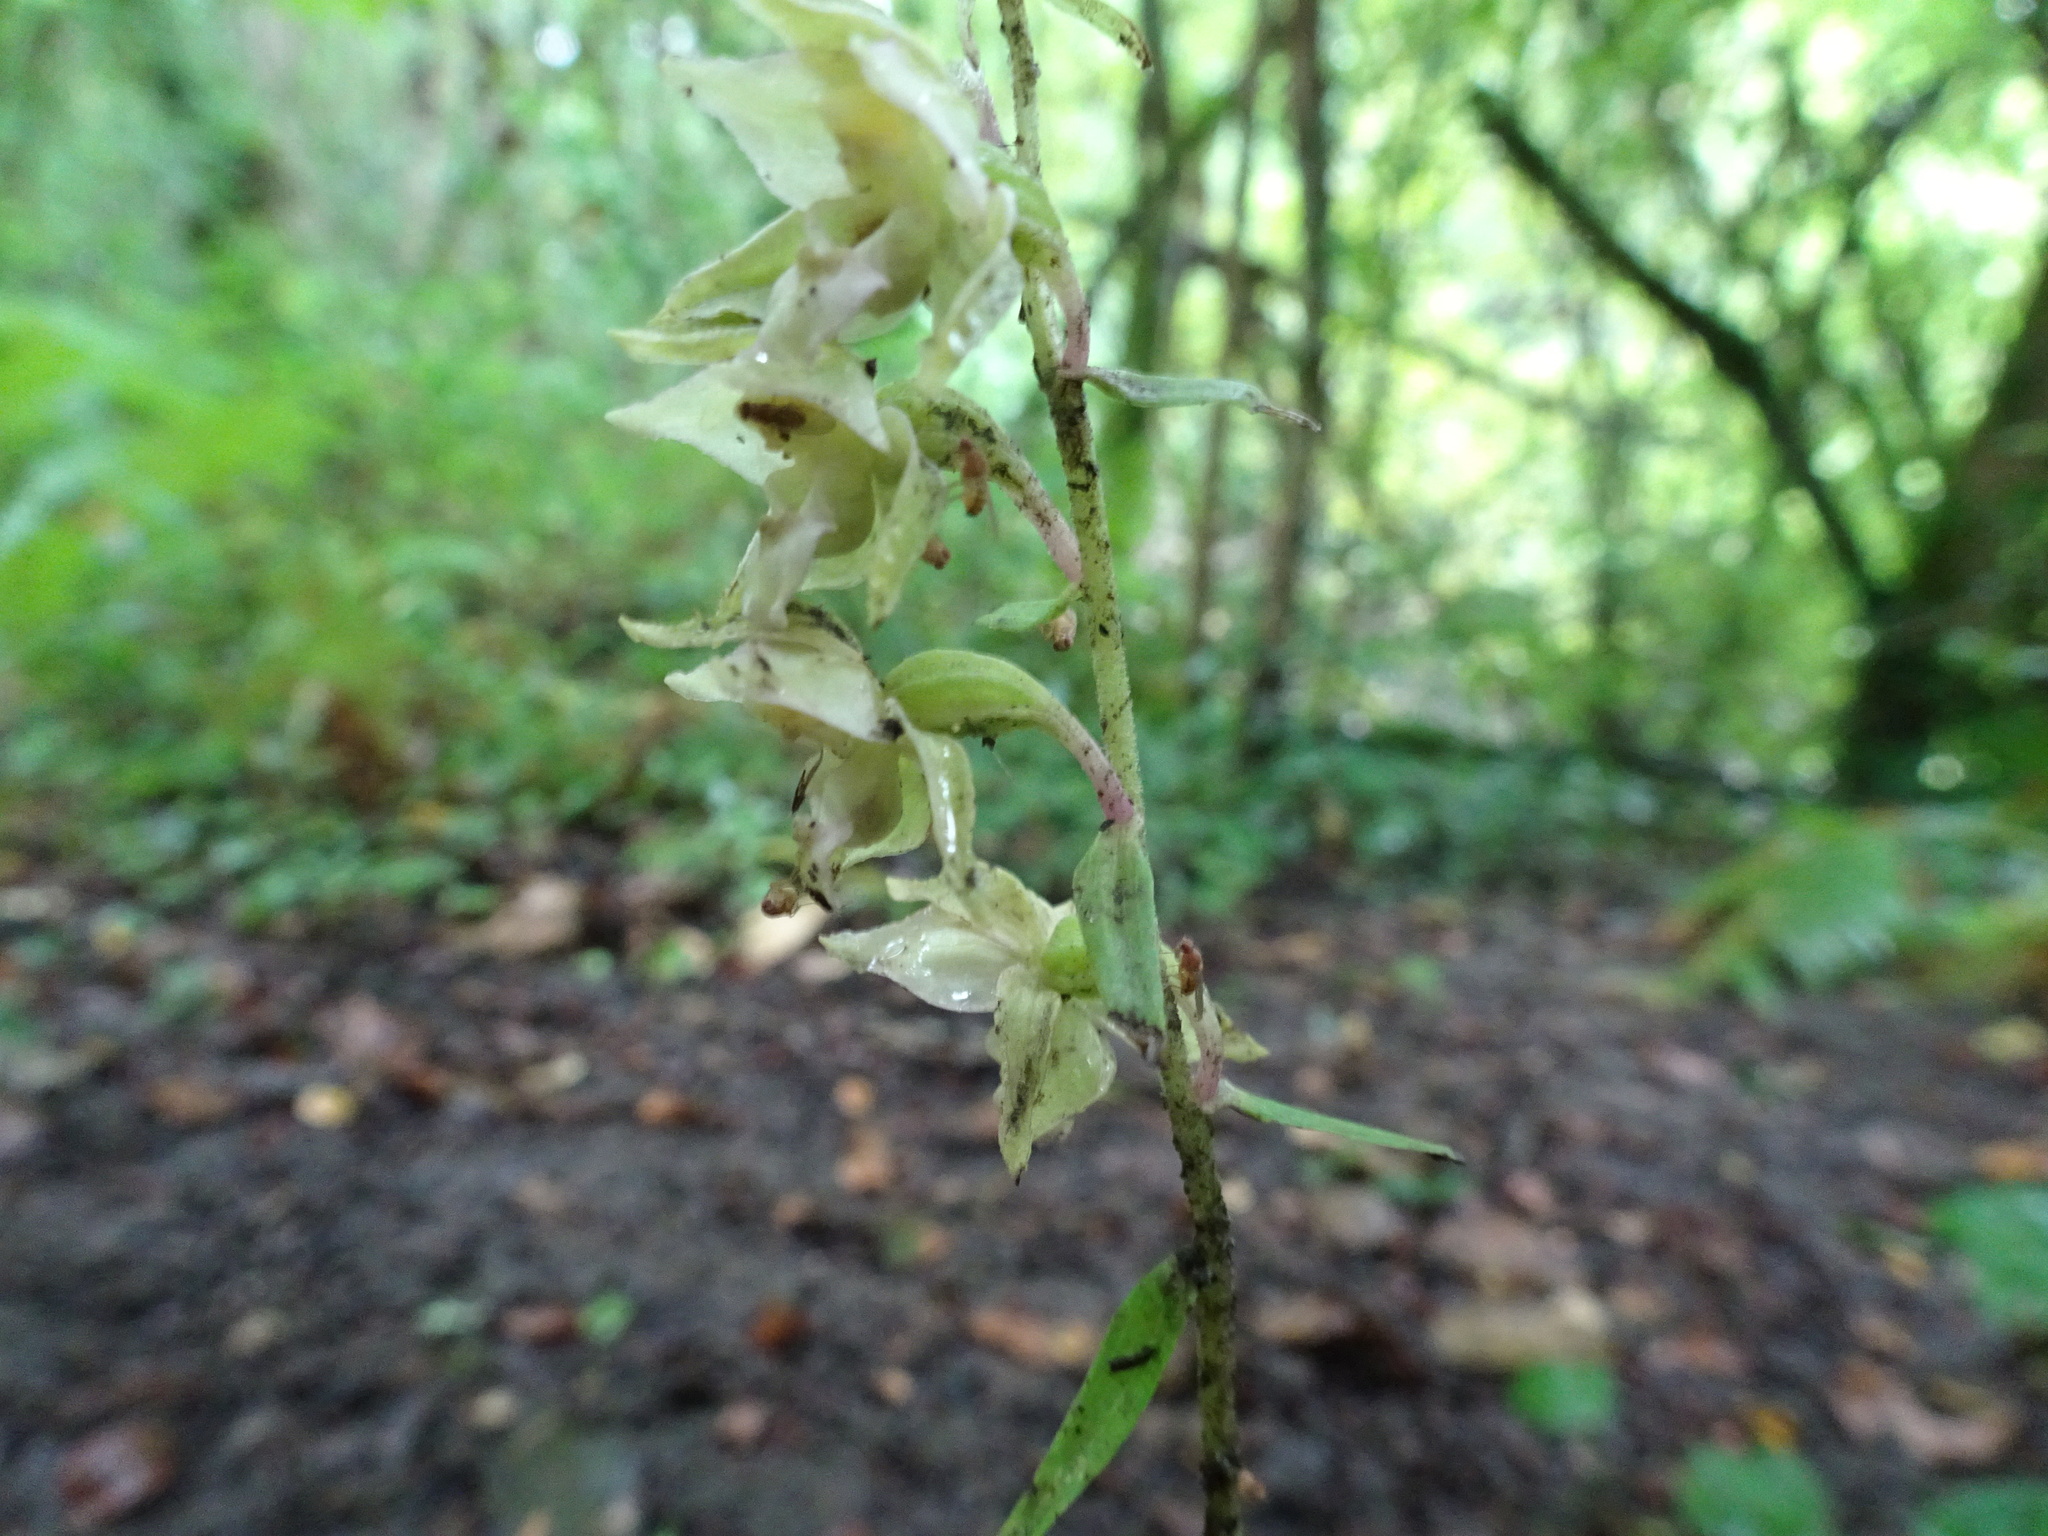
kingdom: Plantae
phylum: Tracheophyta
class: Liliopsida
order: Asparagales
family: Orchidaceae
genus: Epipactis
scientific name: Epipactis helleborine
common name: Broad-leaved helleborine
